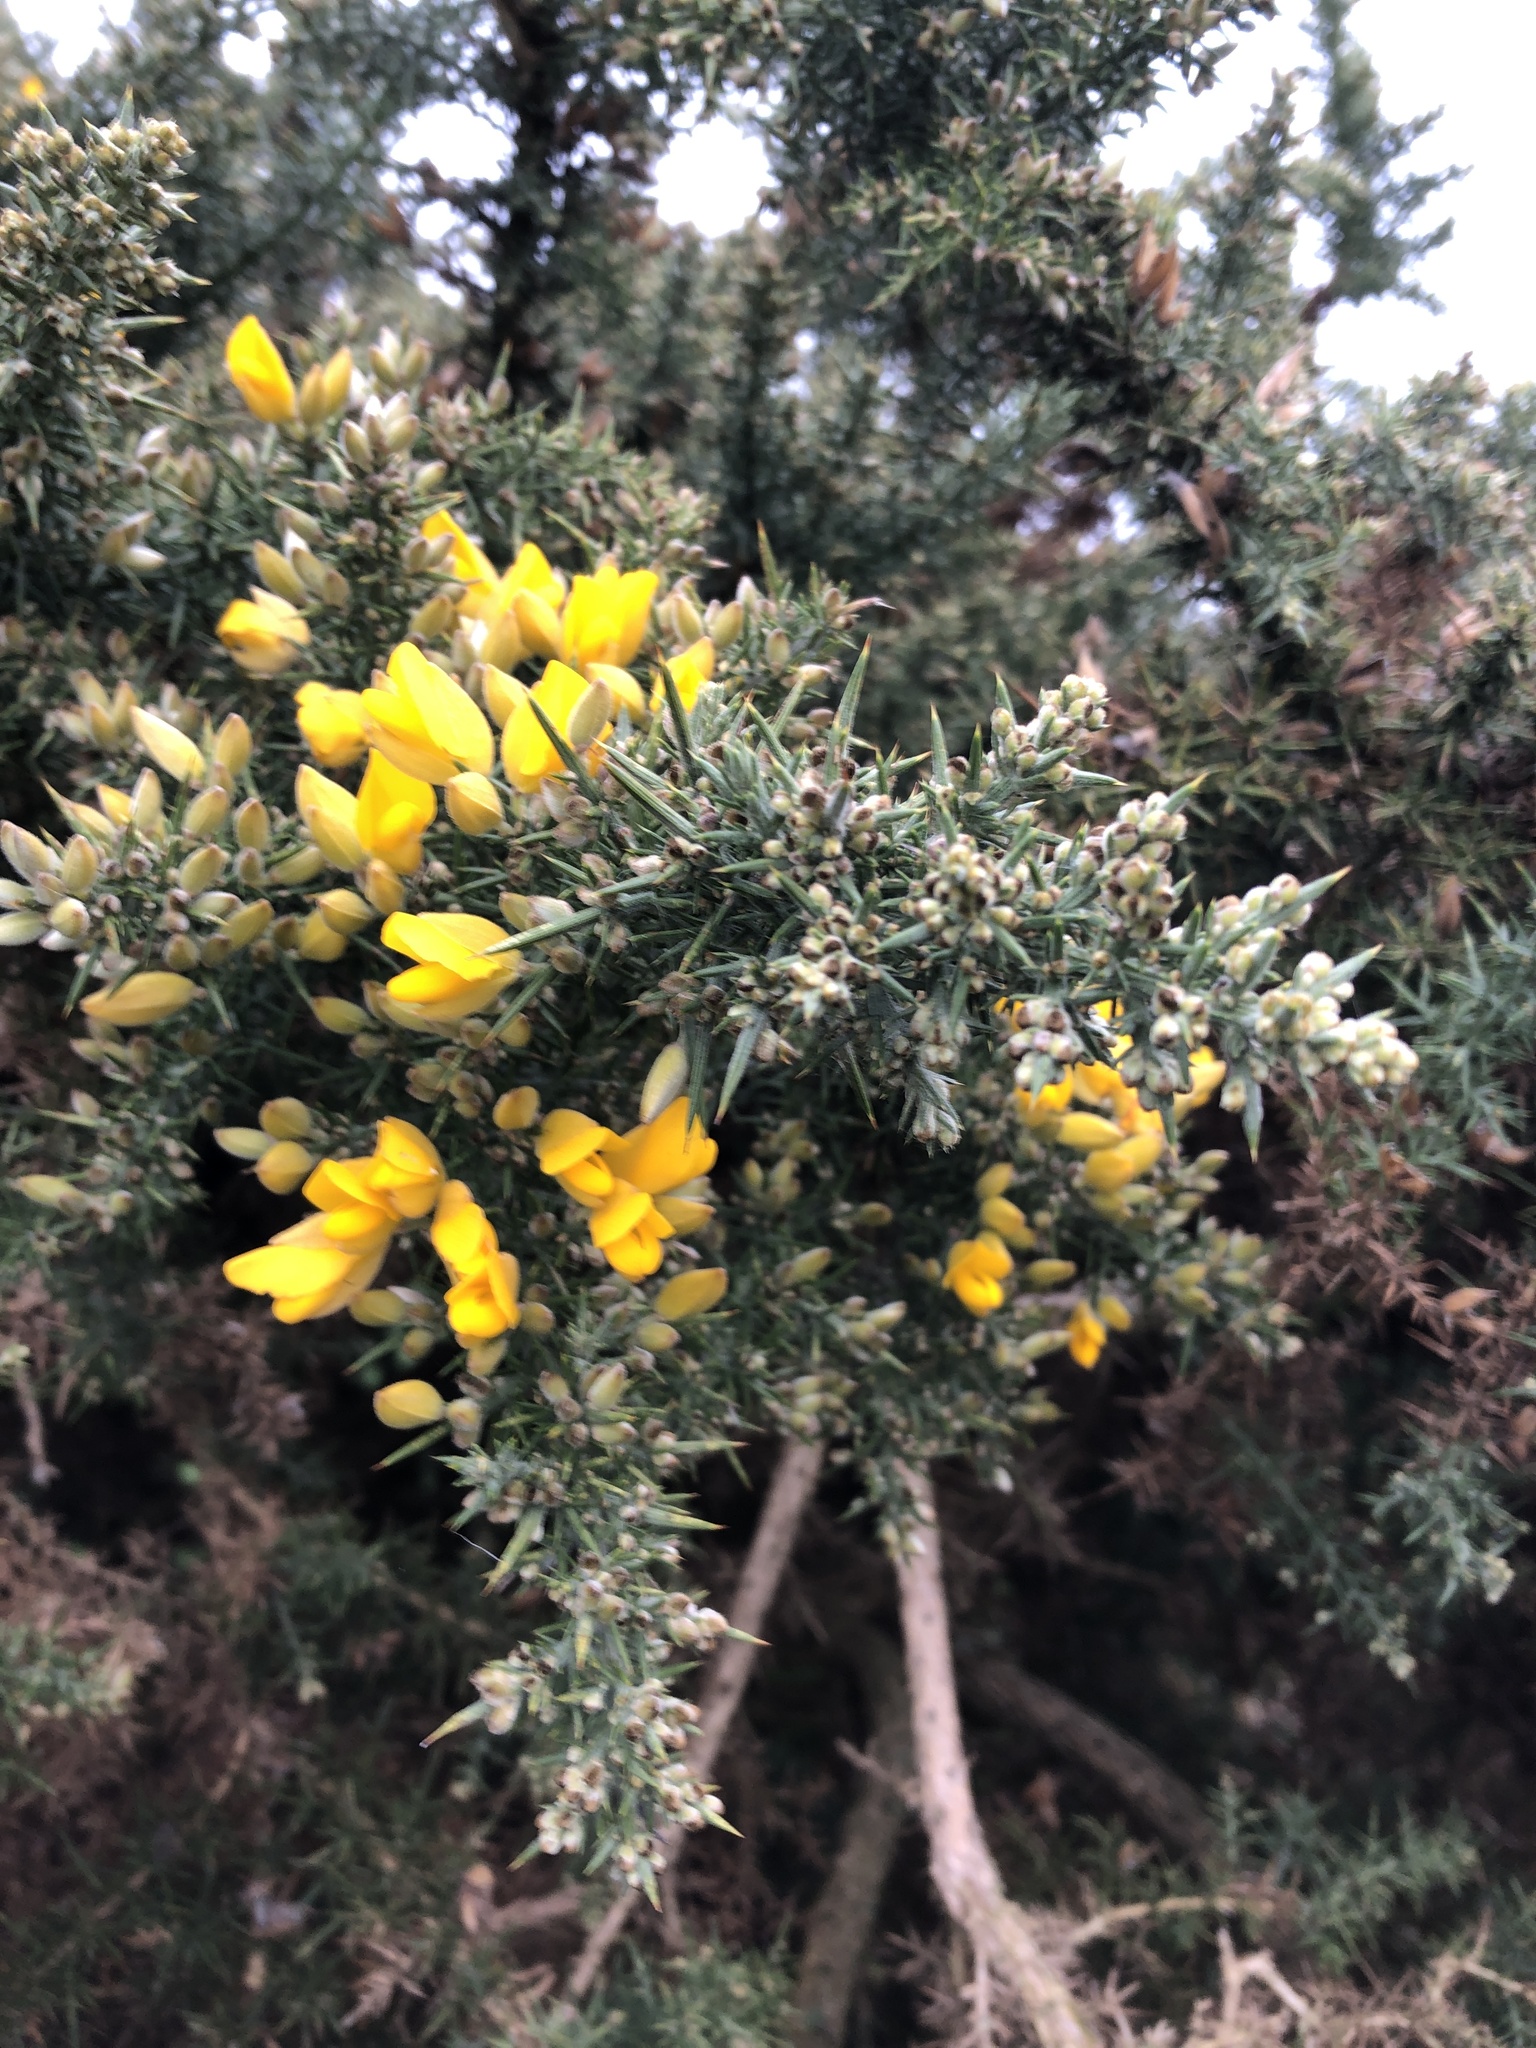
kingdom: Plantae
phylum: Tracheophyta
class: Magnoliopsida
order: Fabales
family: Fabaceae
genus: Ulex
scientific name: Ulex europaeus
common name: Common gorse
